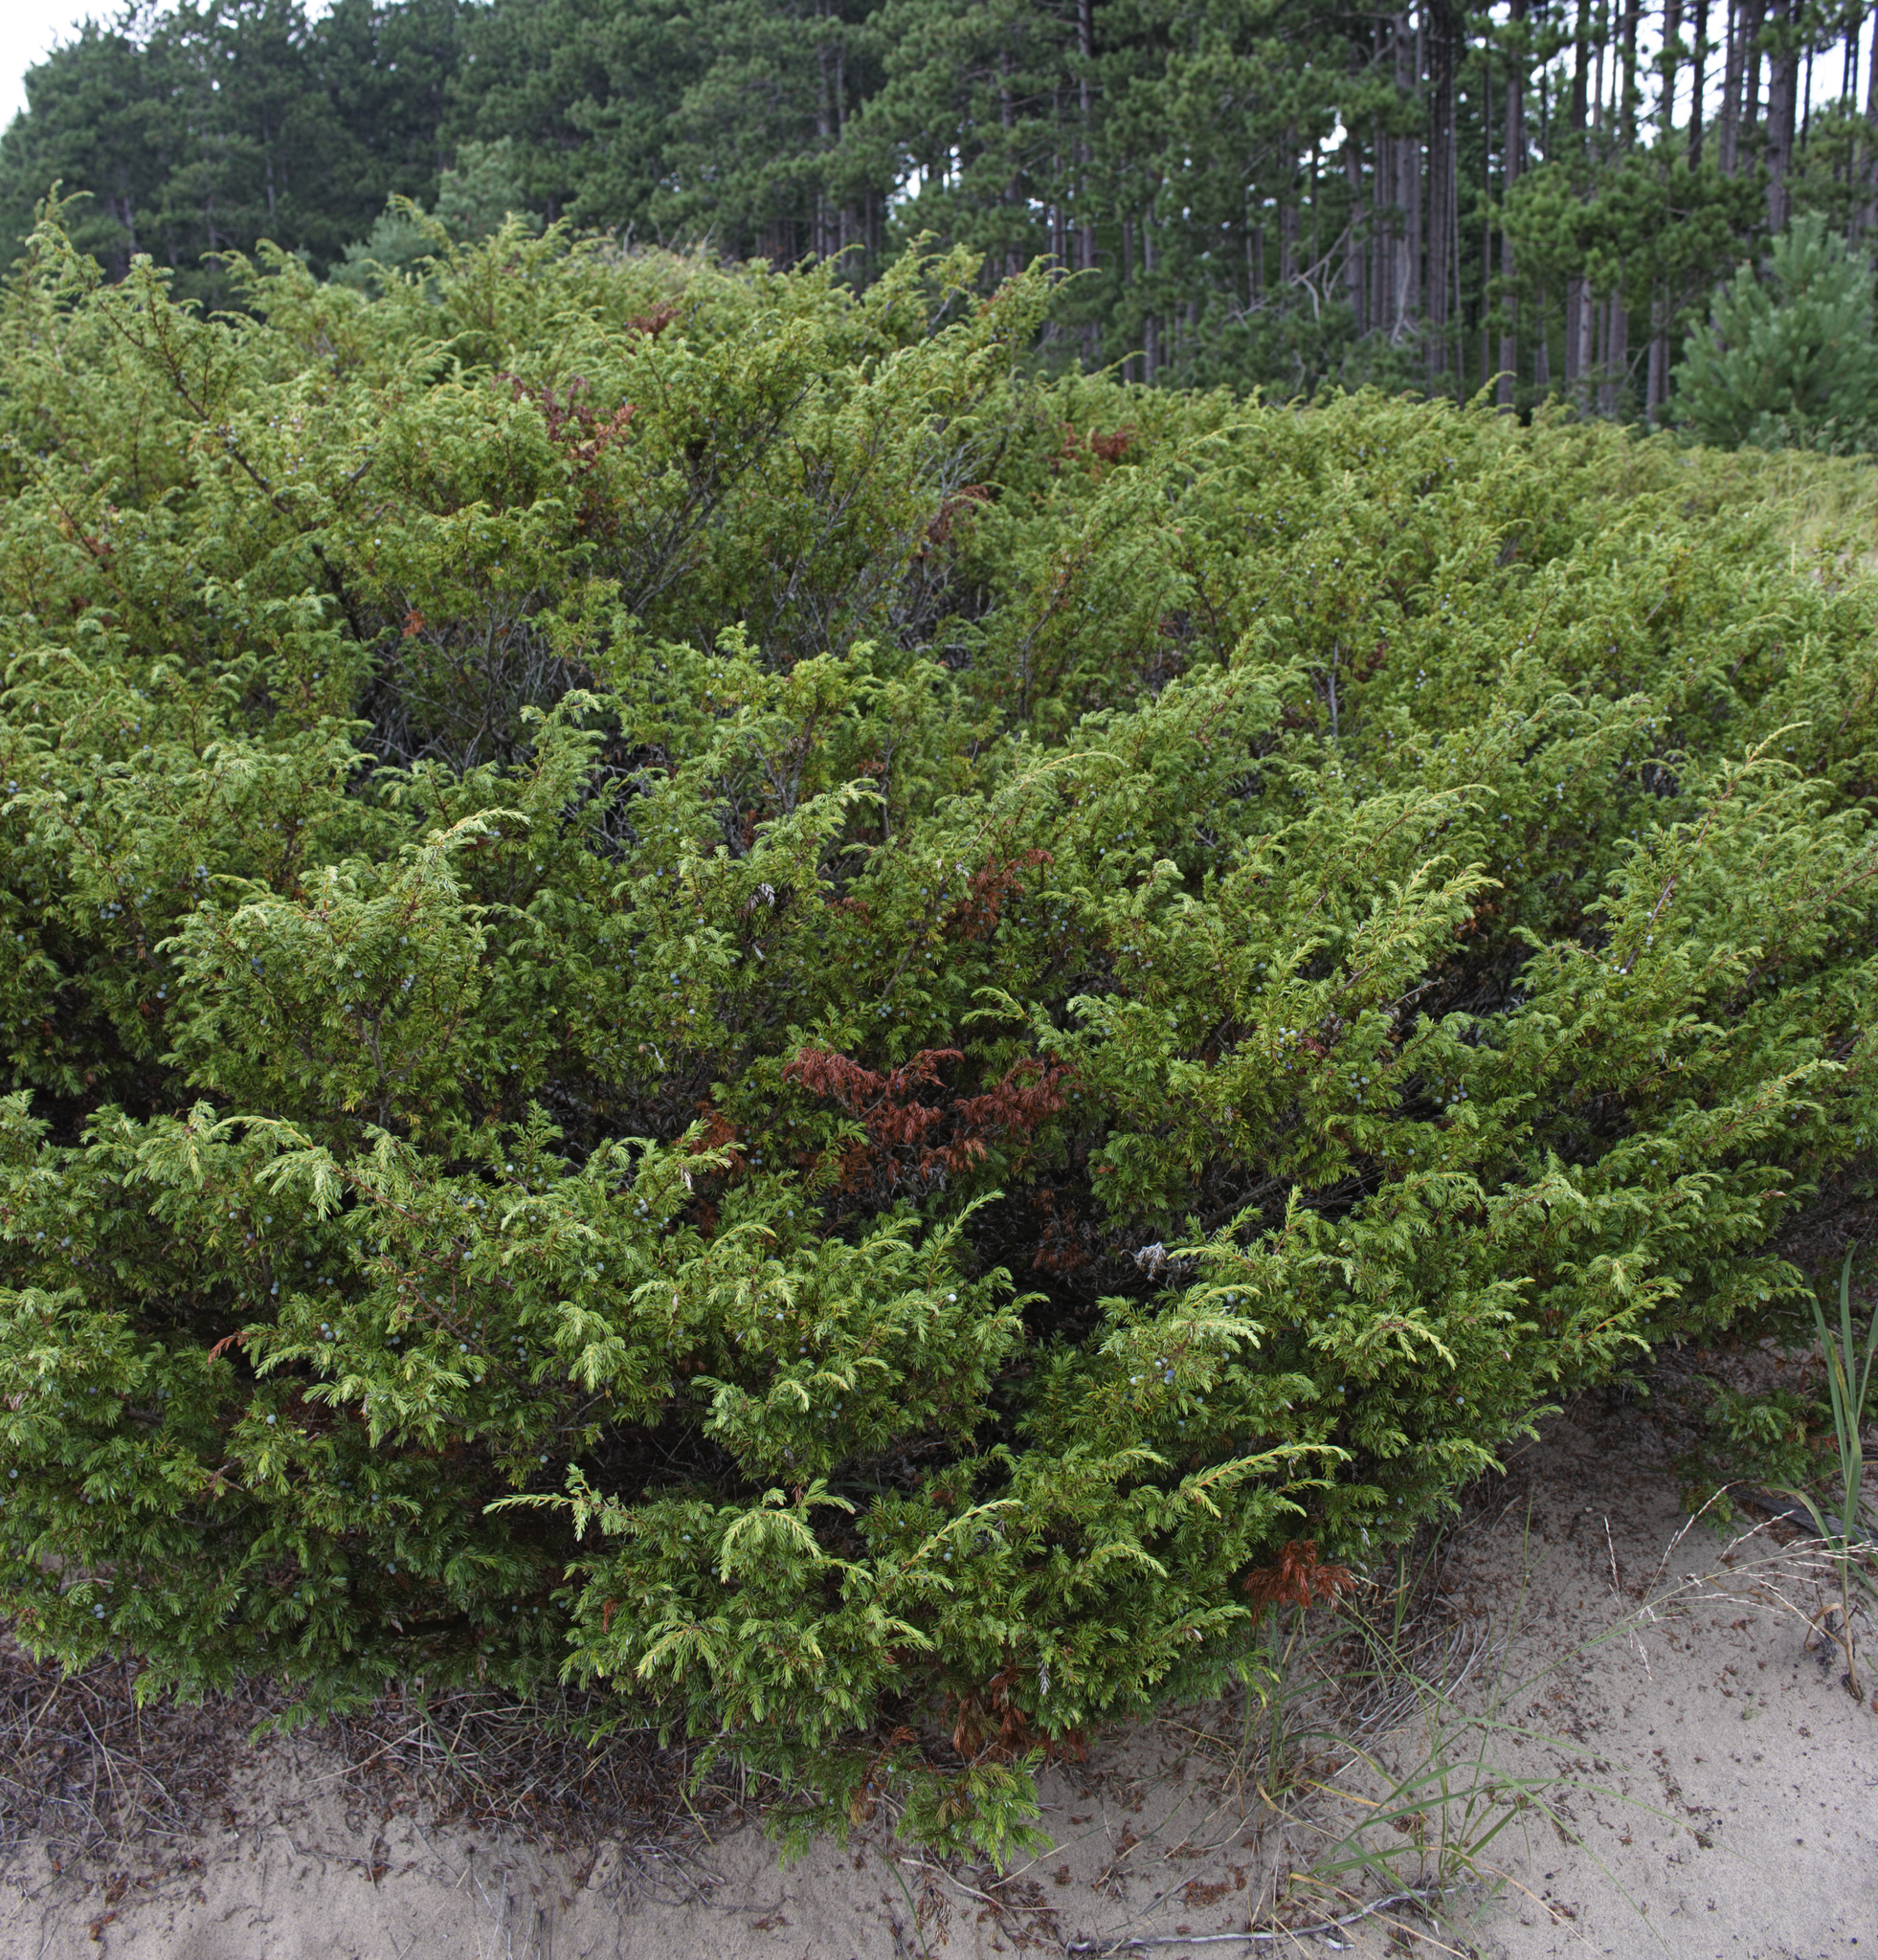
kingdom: Plantae
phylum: Tracheophyta
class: Pinopsida
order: Pinales
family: Cupressaceae
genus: Juniperus
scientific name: Juniperus communis
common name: Common juniper
